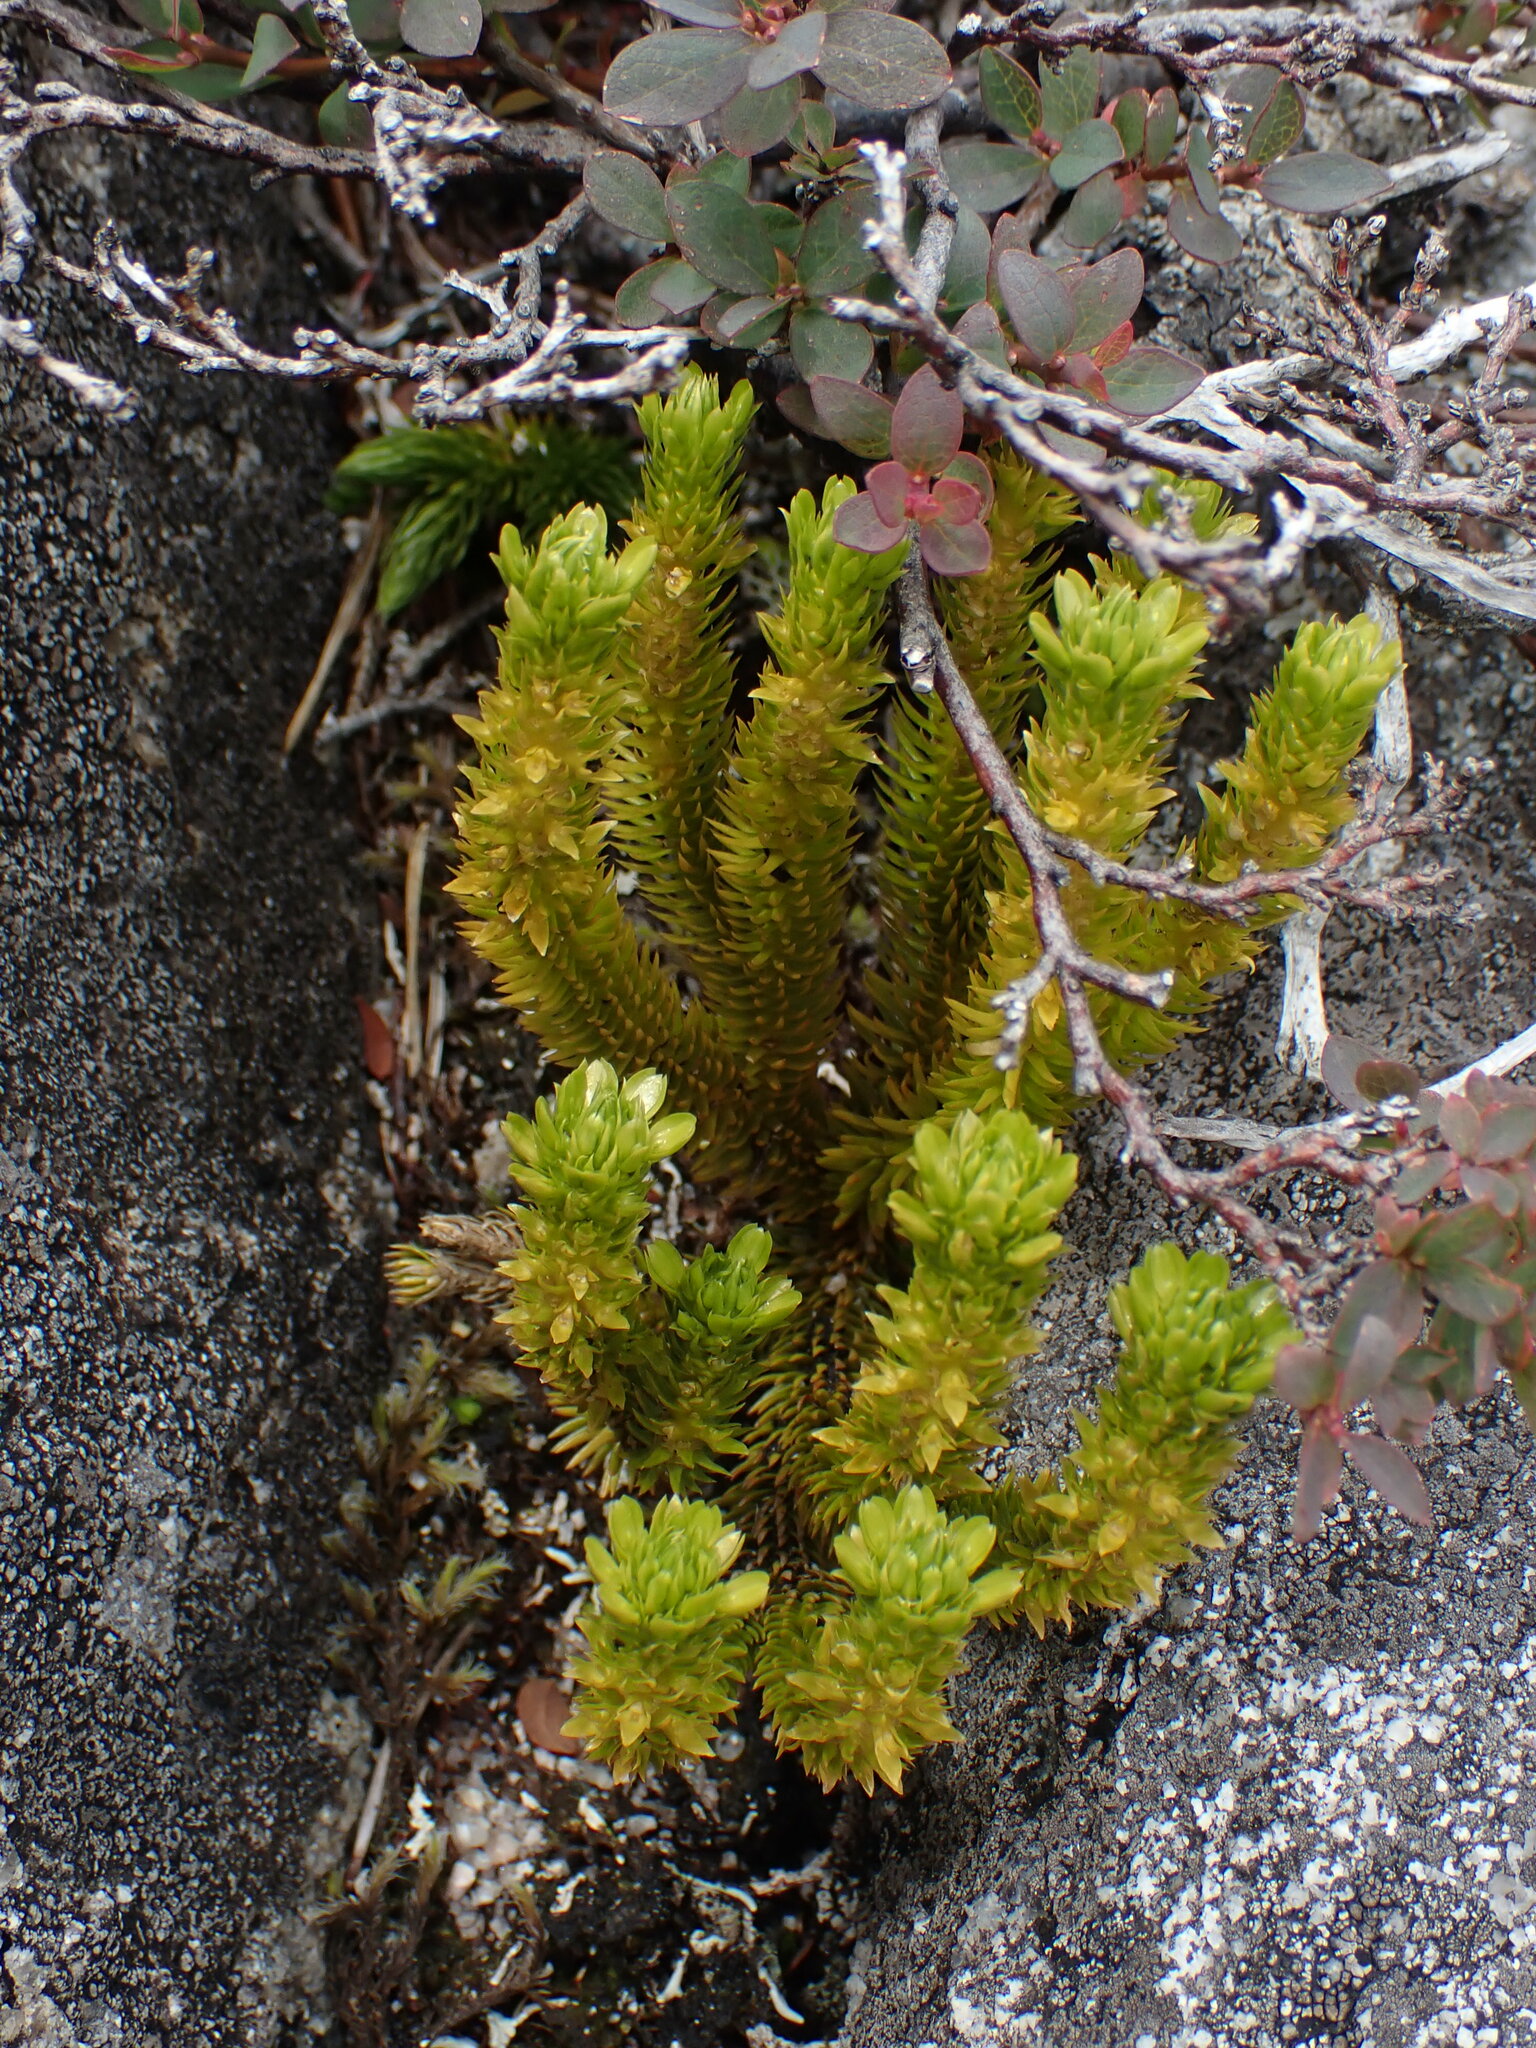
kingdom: Plantae
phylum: Tracheophyta
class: Lycopodiopsida
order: Lycopodiales
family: Lycopodiaceae
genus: Huperzia
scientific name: Huperzia continentalis
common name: Continental firmoss
